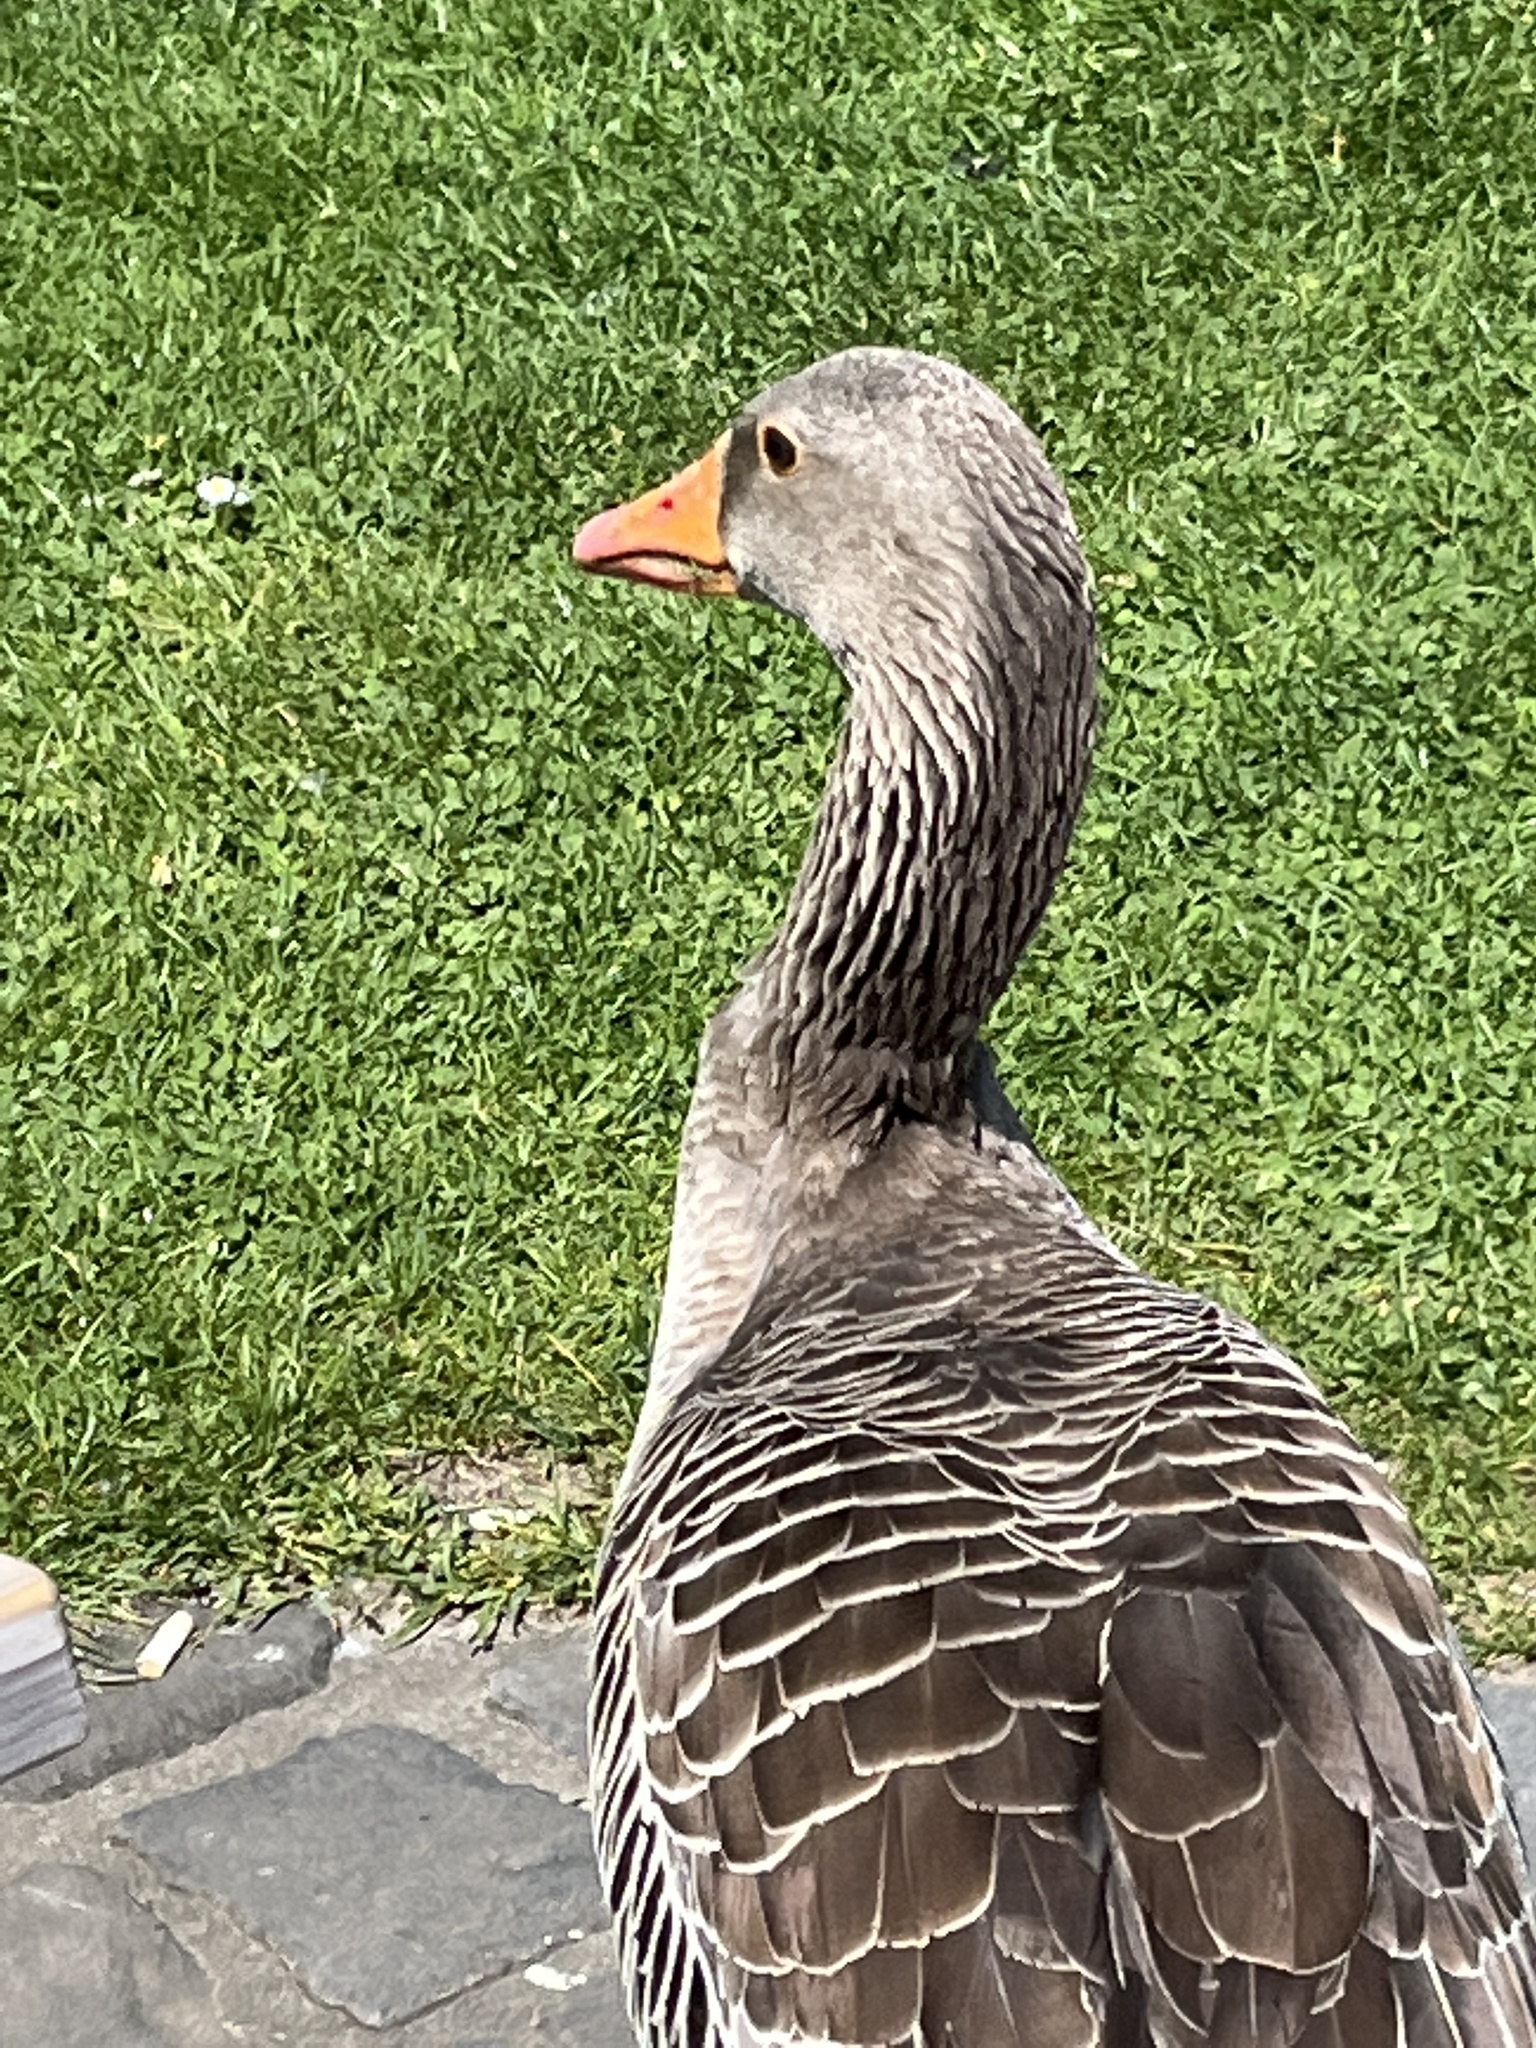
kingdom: Animalia
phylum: Chordata
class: Aves
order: Anseriformes
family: Anatidae
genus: Anser
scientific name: Anser anser
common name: Greylag goose
